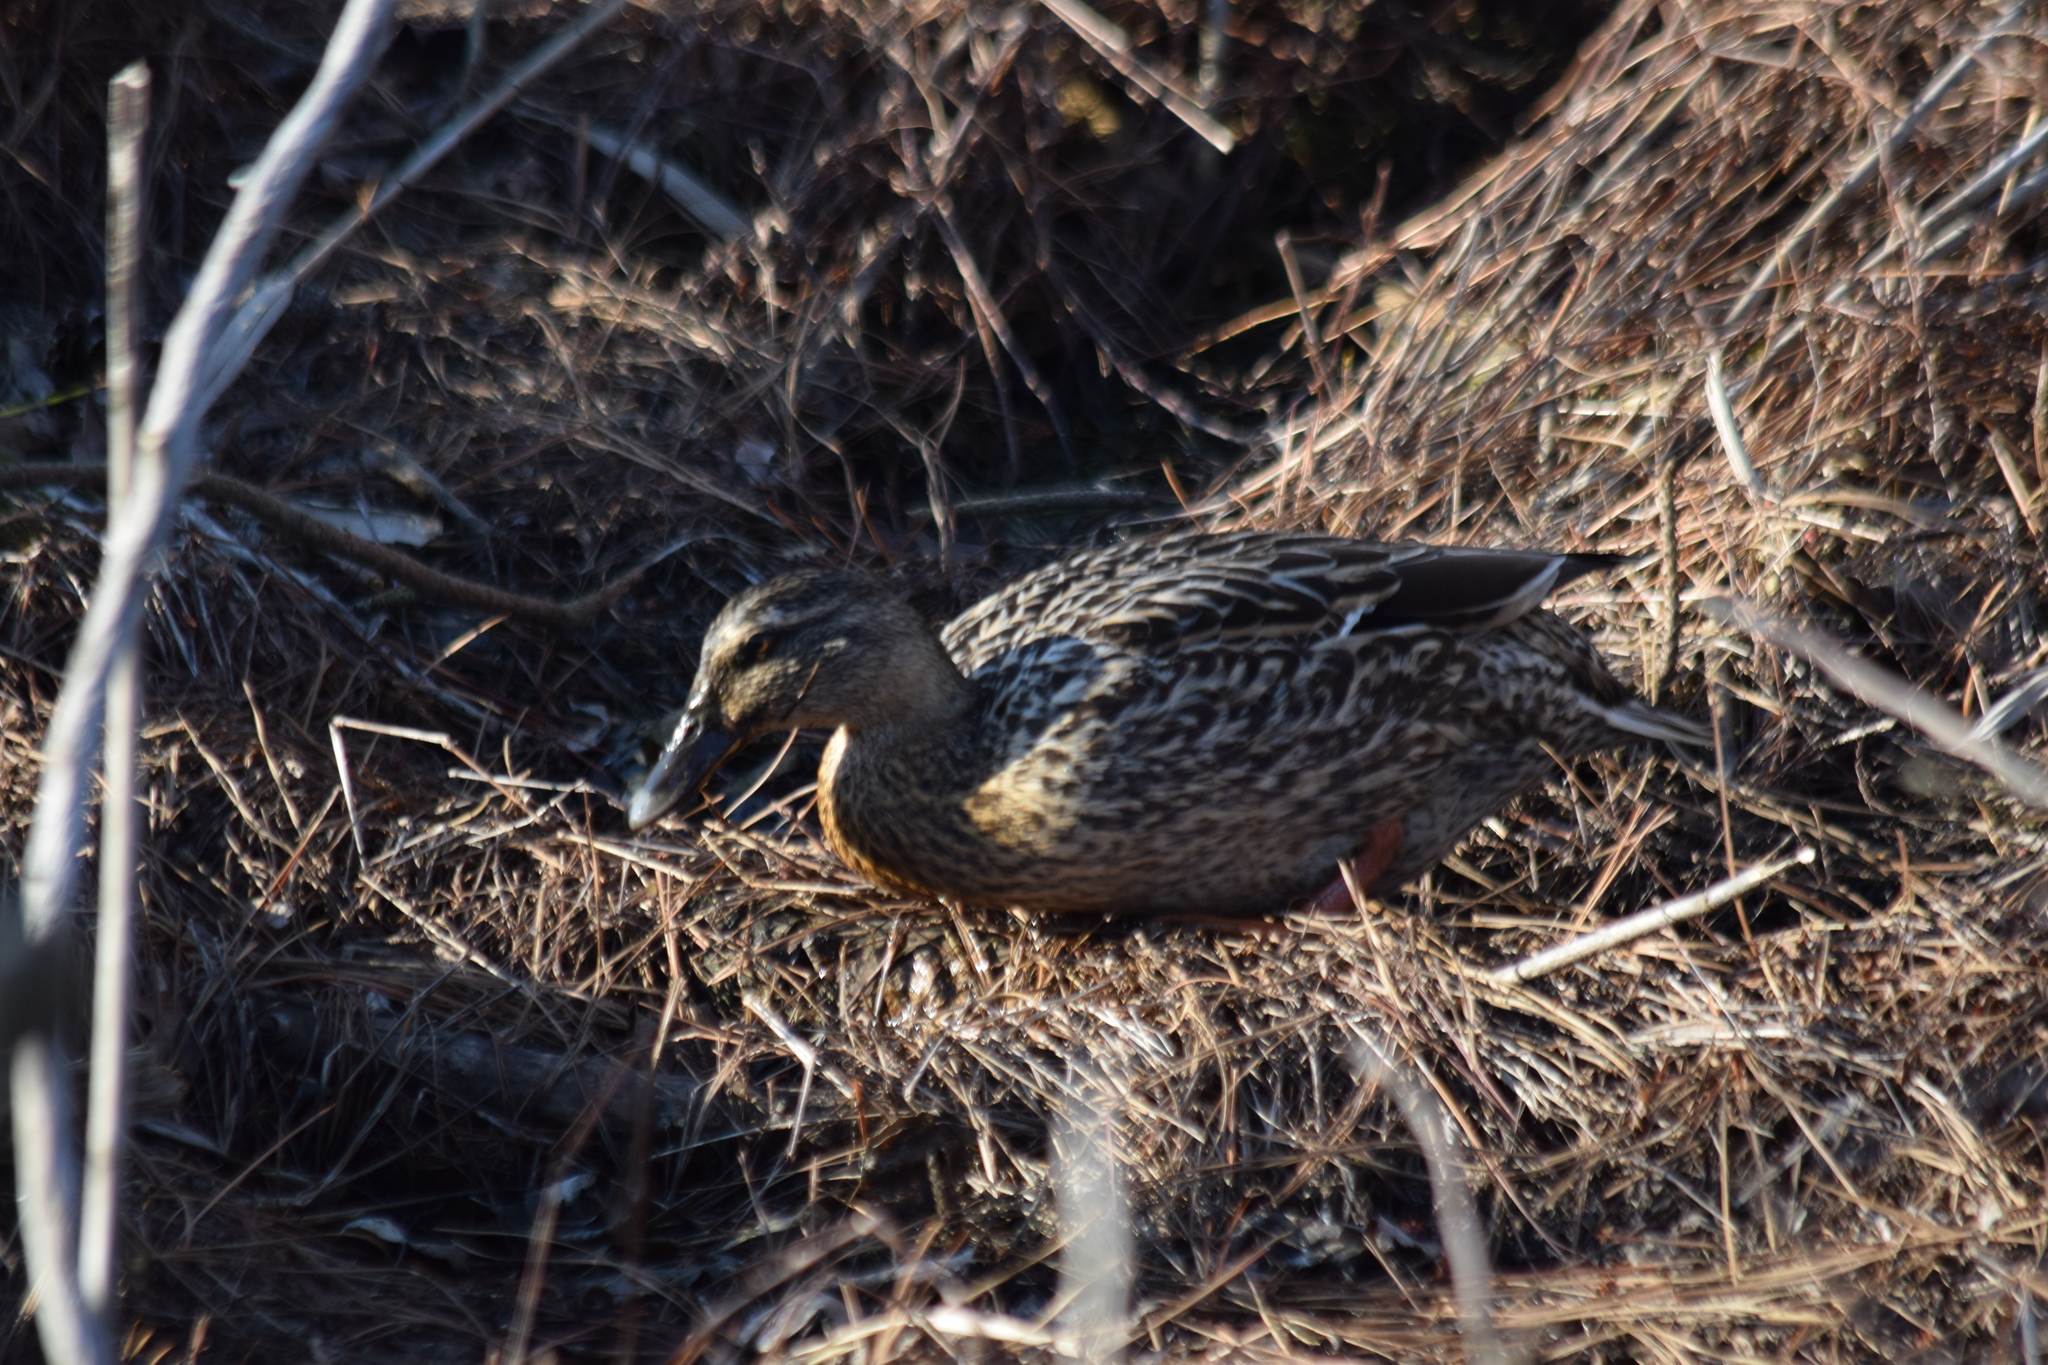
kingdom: Animalia
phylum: Chordata
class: Aves
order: Anseriformes
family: Anatidae
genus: Anas
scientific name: Anas platyrhynchos
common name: Mallard
